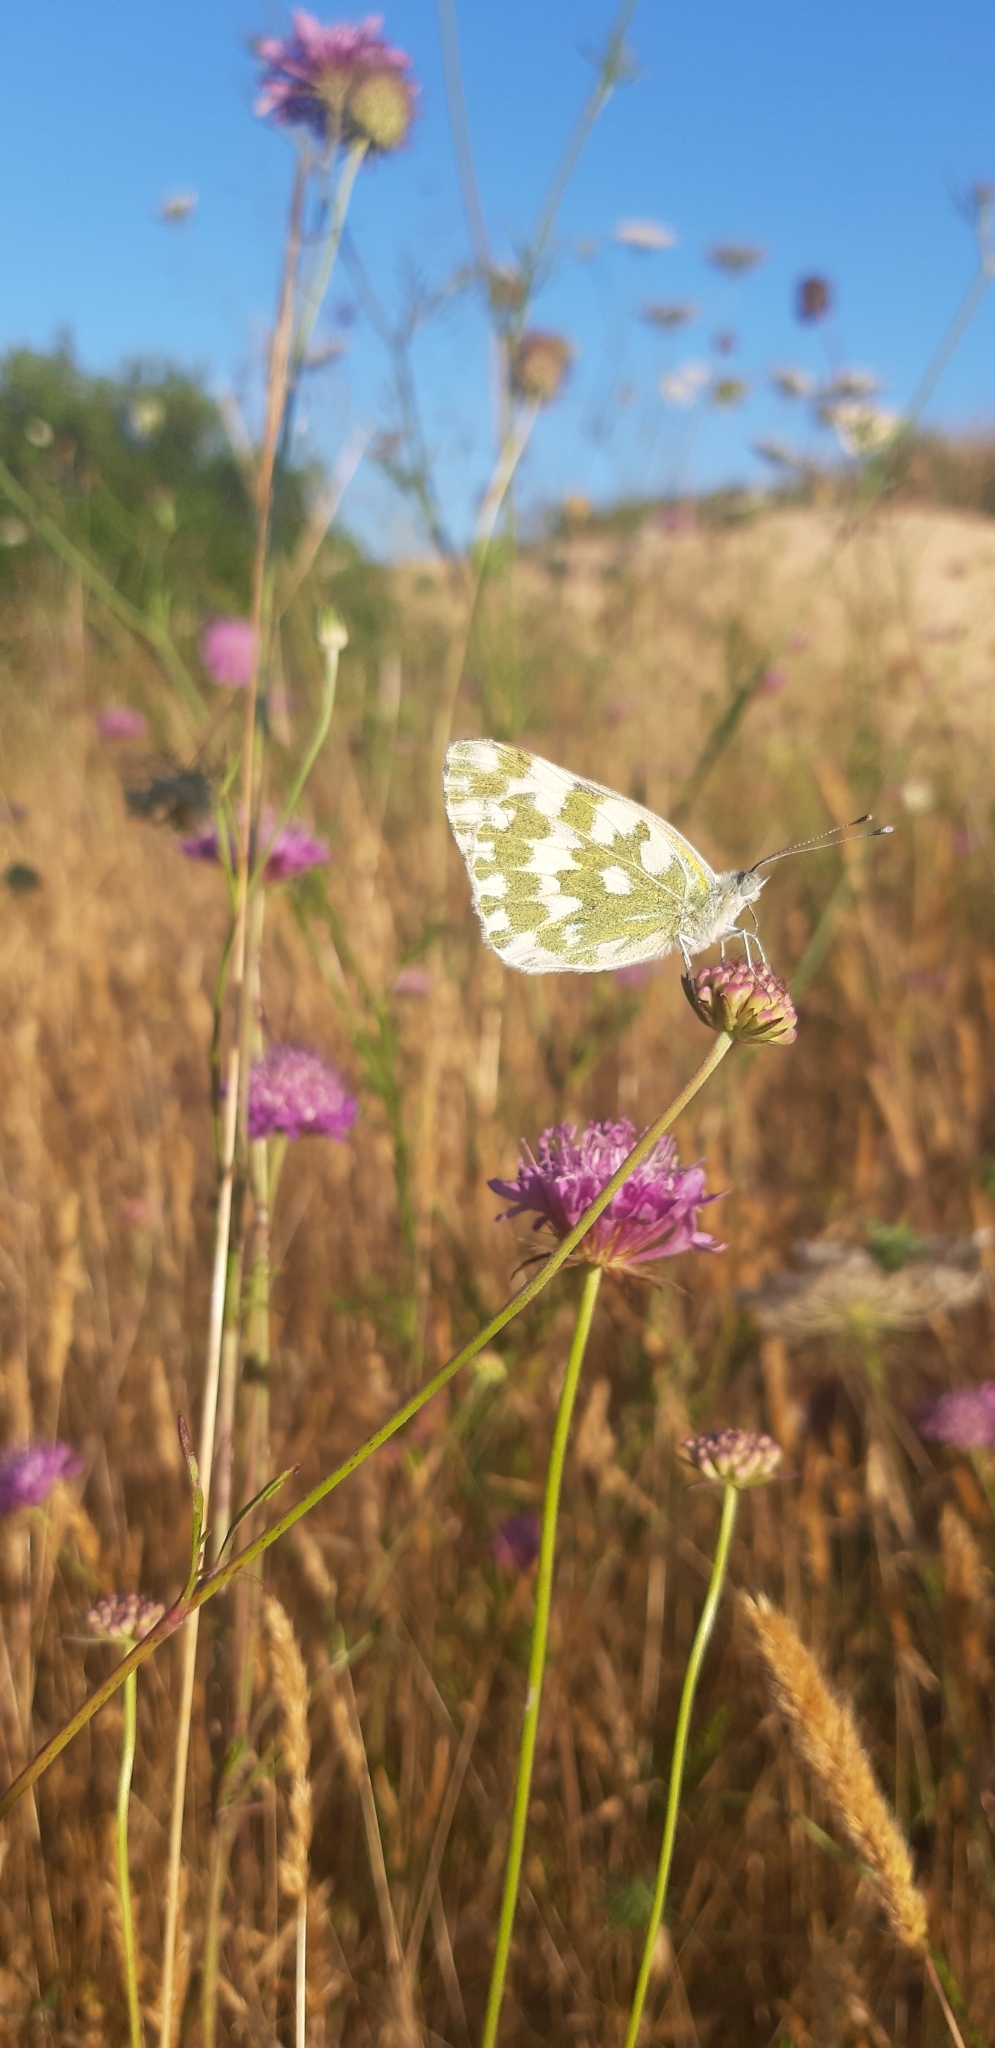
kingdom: Animalia
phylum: Arthropoda
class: Insecta
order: Lepidoptera
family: Pieridae
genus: Pontia
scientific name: Pontia edusa
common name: Eastern bath white
